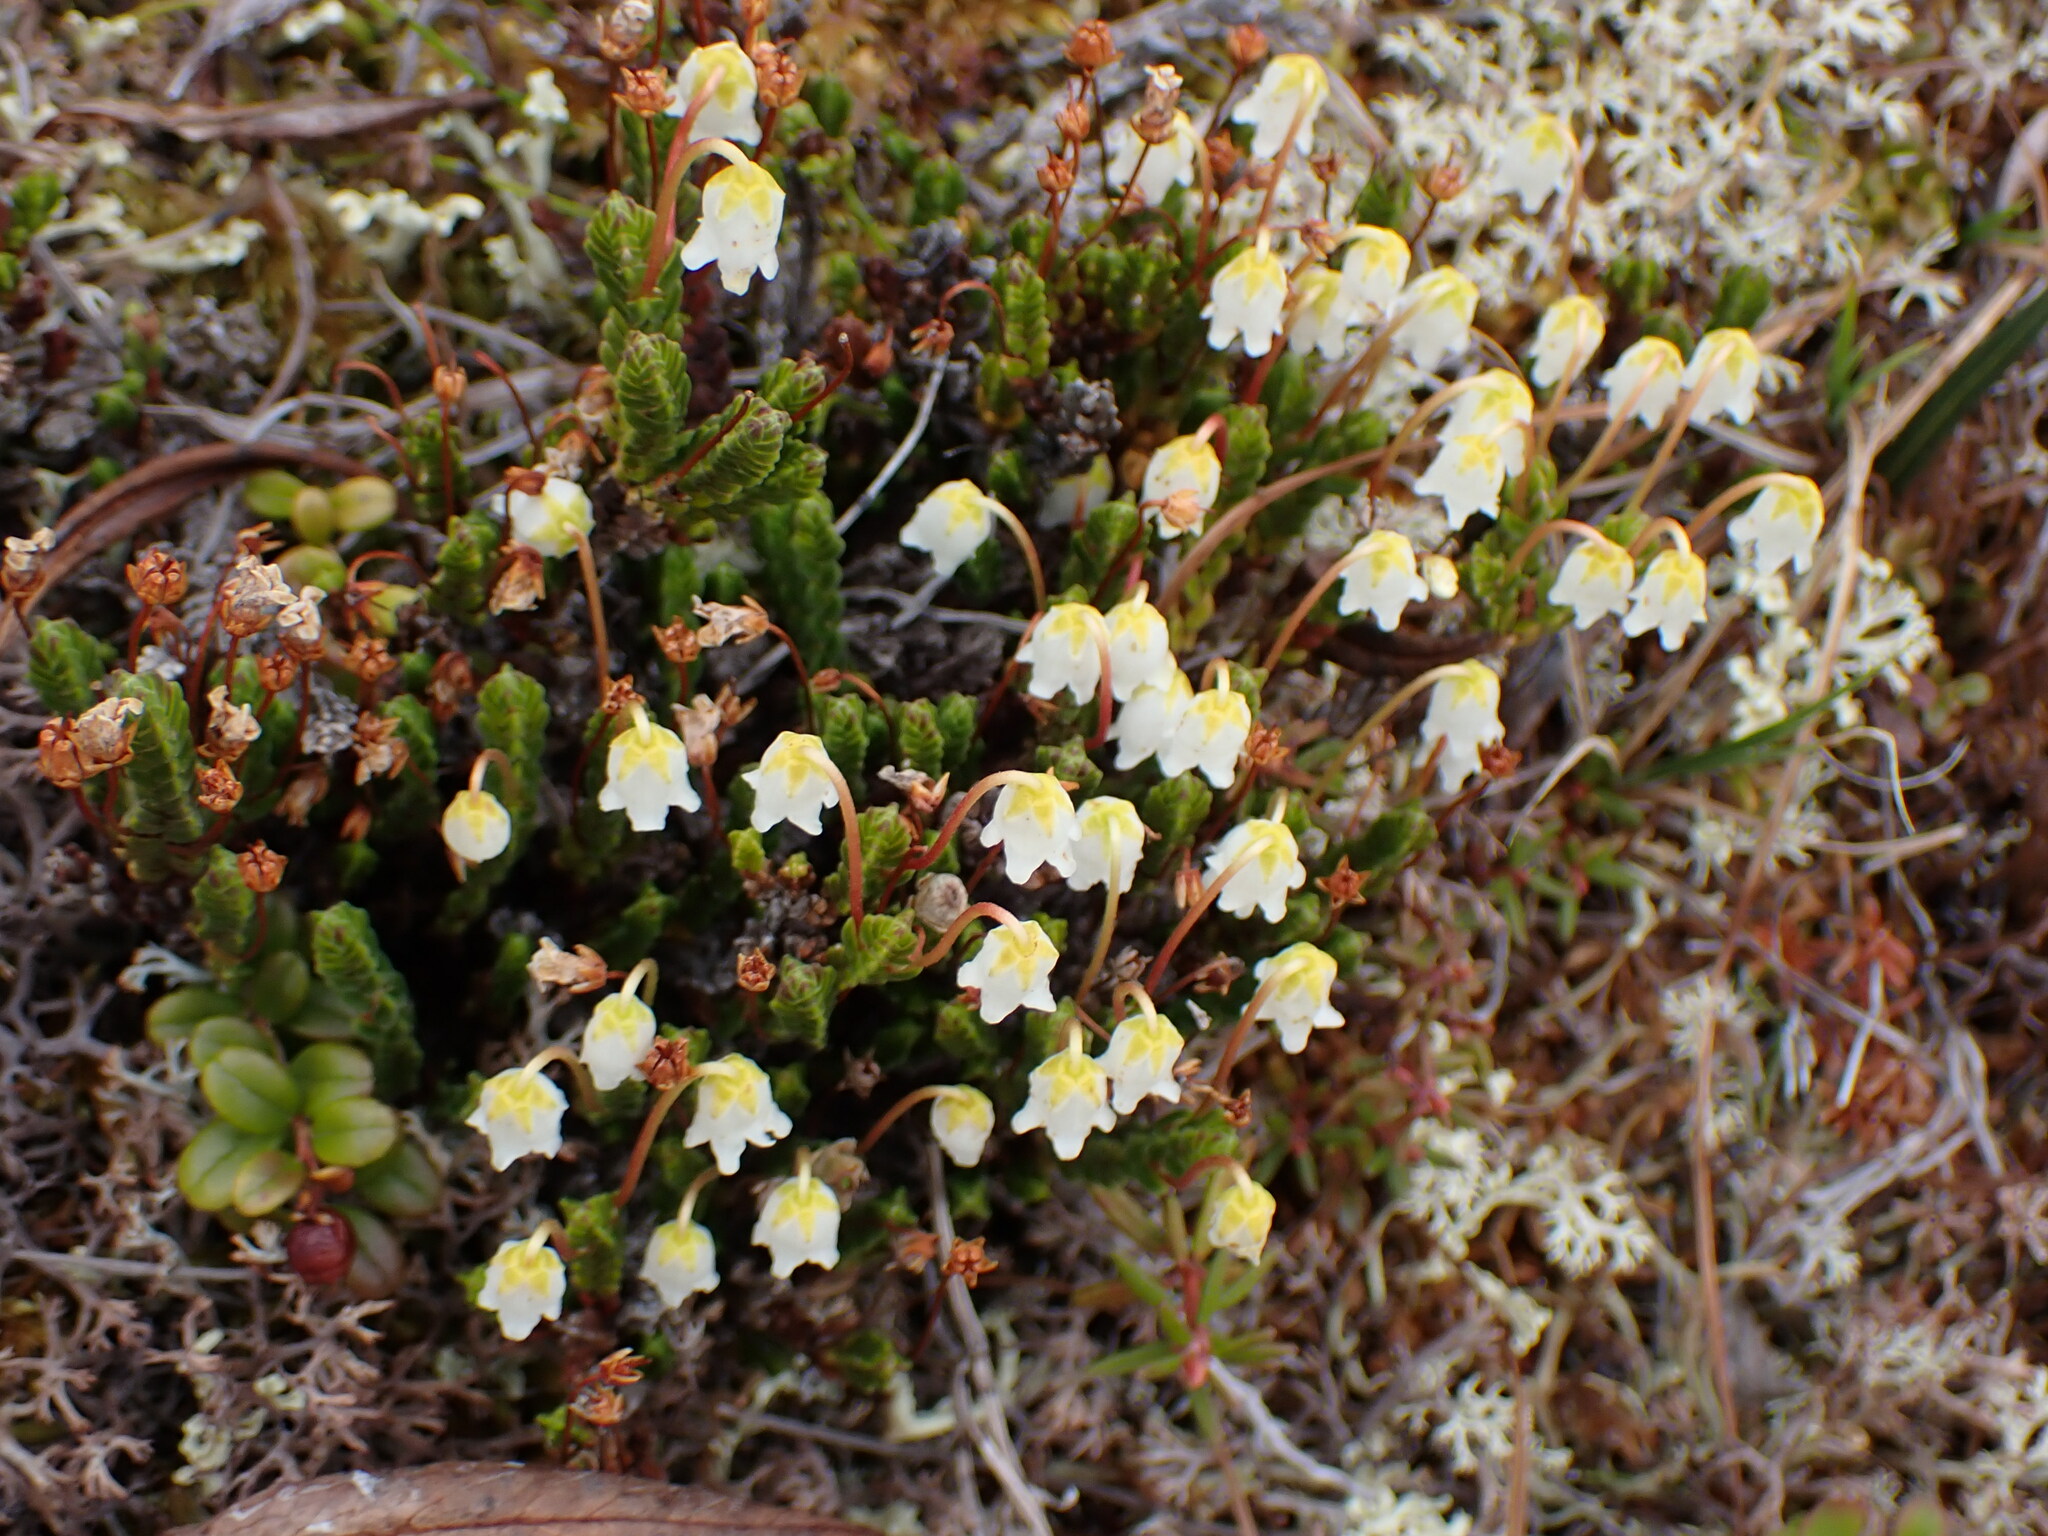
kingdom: Plantae
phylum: Tracheophyta
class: Magnoliopsida
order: Ericales
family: Ericaceae
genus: Cassiope
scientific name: Cassiope tetragona
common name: Arctic bell heather
